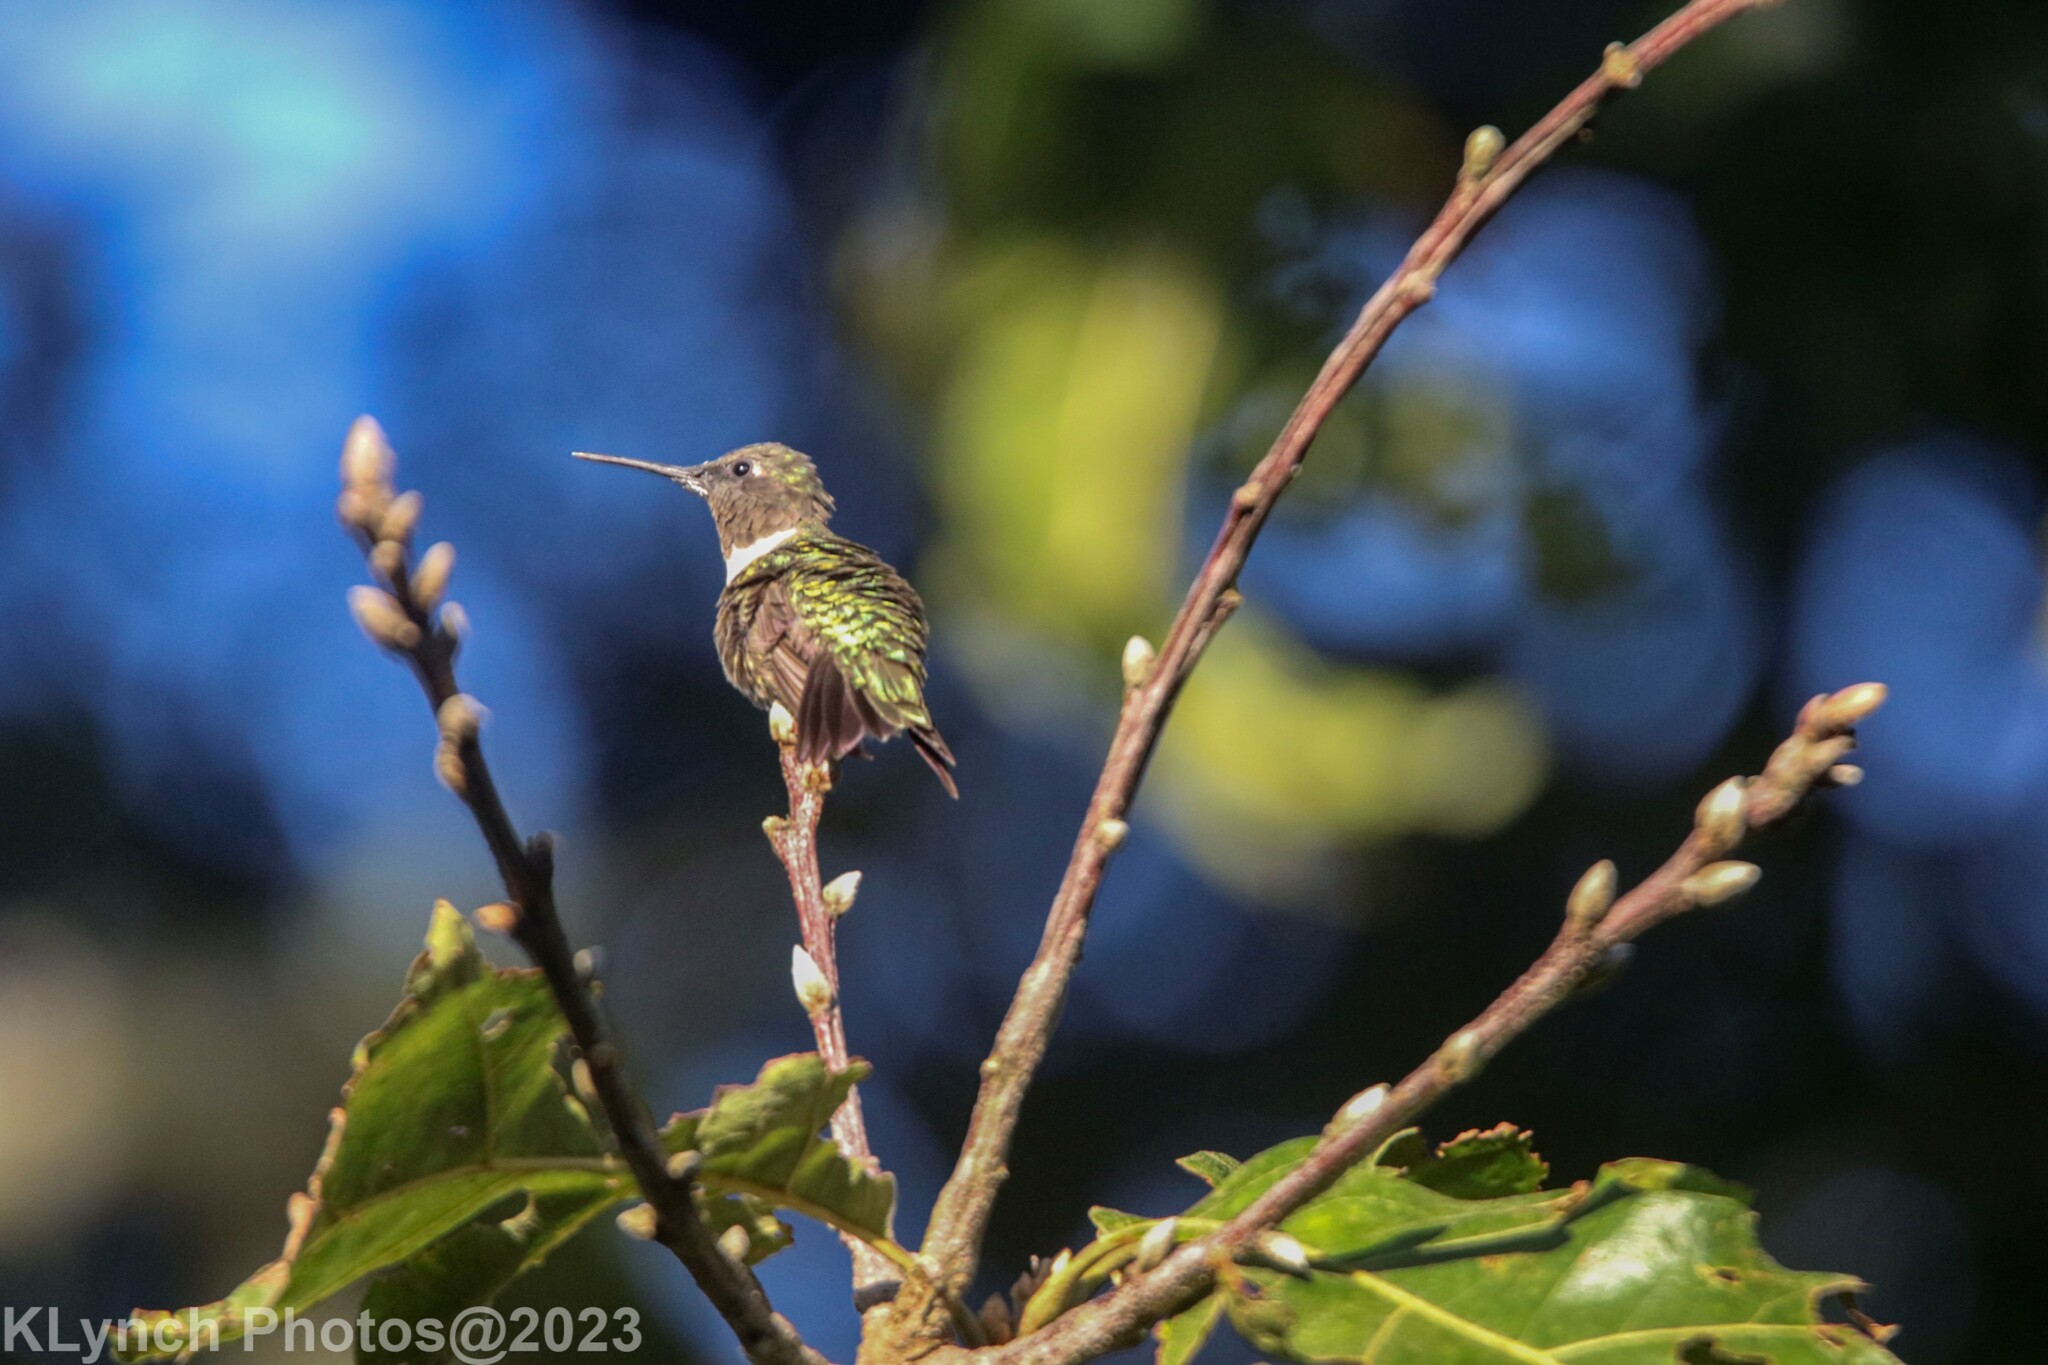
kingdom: Animalia
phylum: Chordata
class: Aves
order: Apodiformes
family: Trochilidae
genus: Archilochus
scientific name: Archilochus colubris
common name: Ruby-throated hummingbird
